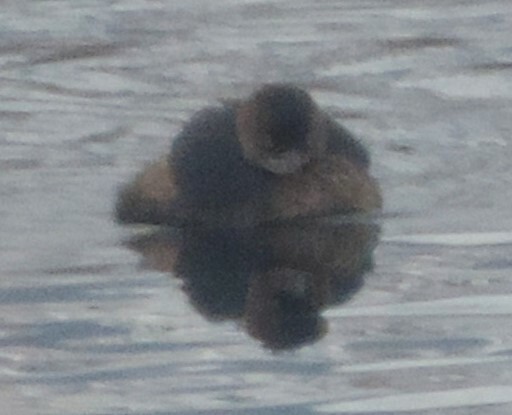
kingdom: Animalia
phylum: Chordata
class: Aves
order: Podicipediformes
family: Podicipedidae
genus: Podilymbus
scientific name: Podilymbus podiceps
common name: Pied-billed grebe
